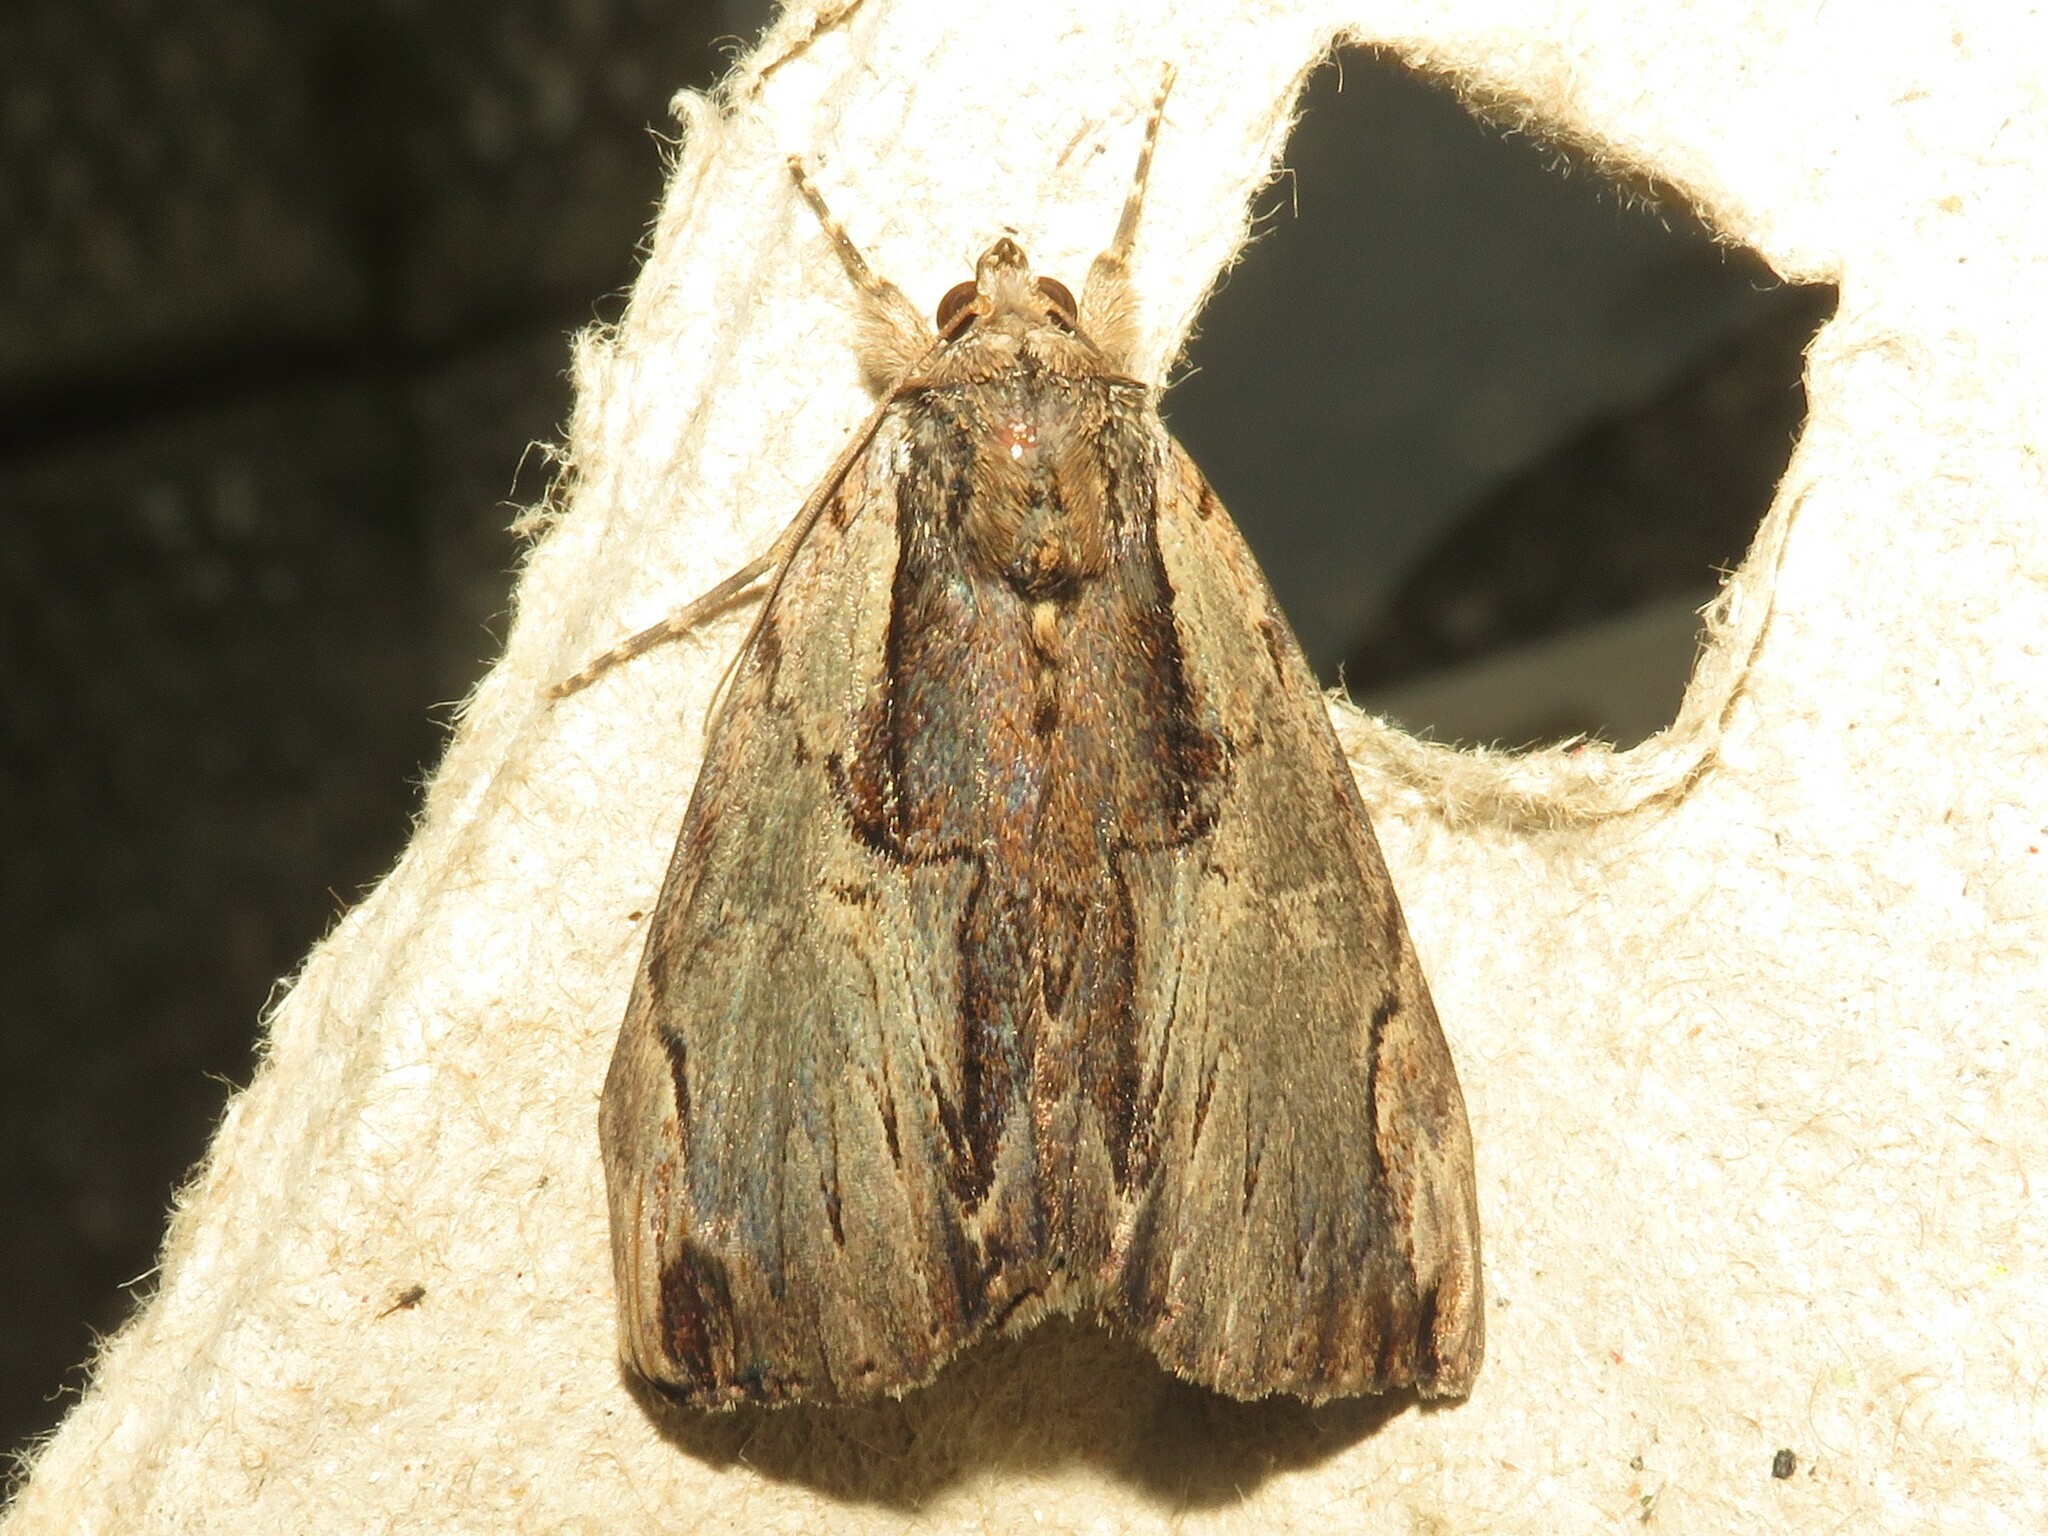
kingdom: Animalia
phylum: Arthropoda
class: Insecta
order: Lepidoptera
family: Erebidae
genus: Catocala
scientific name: Catocala ultronia
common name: Ultronia underwing
